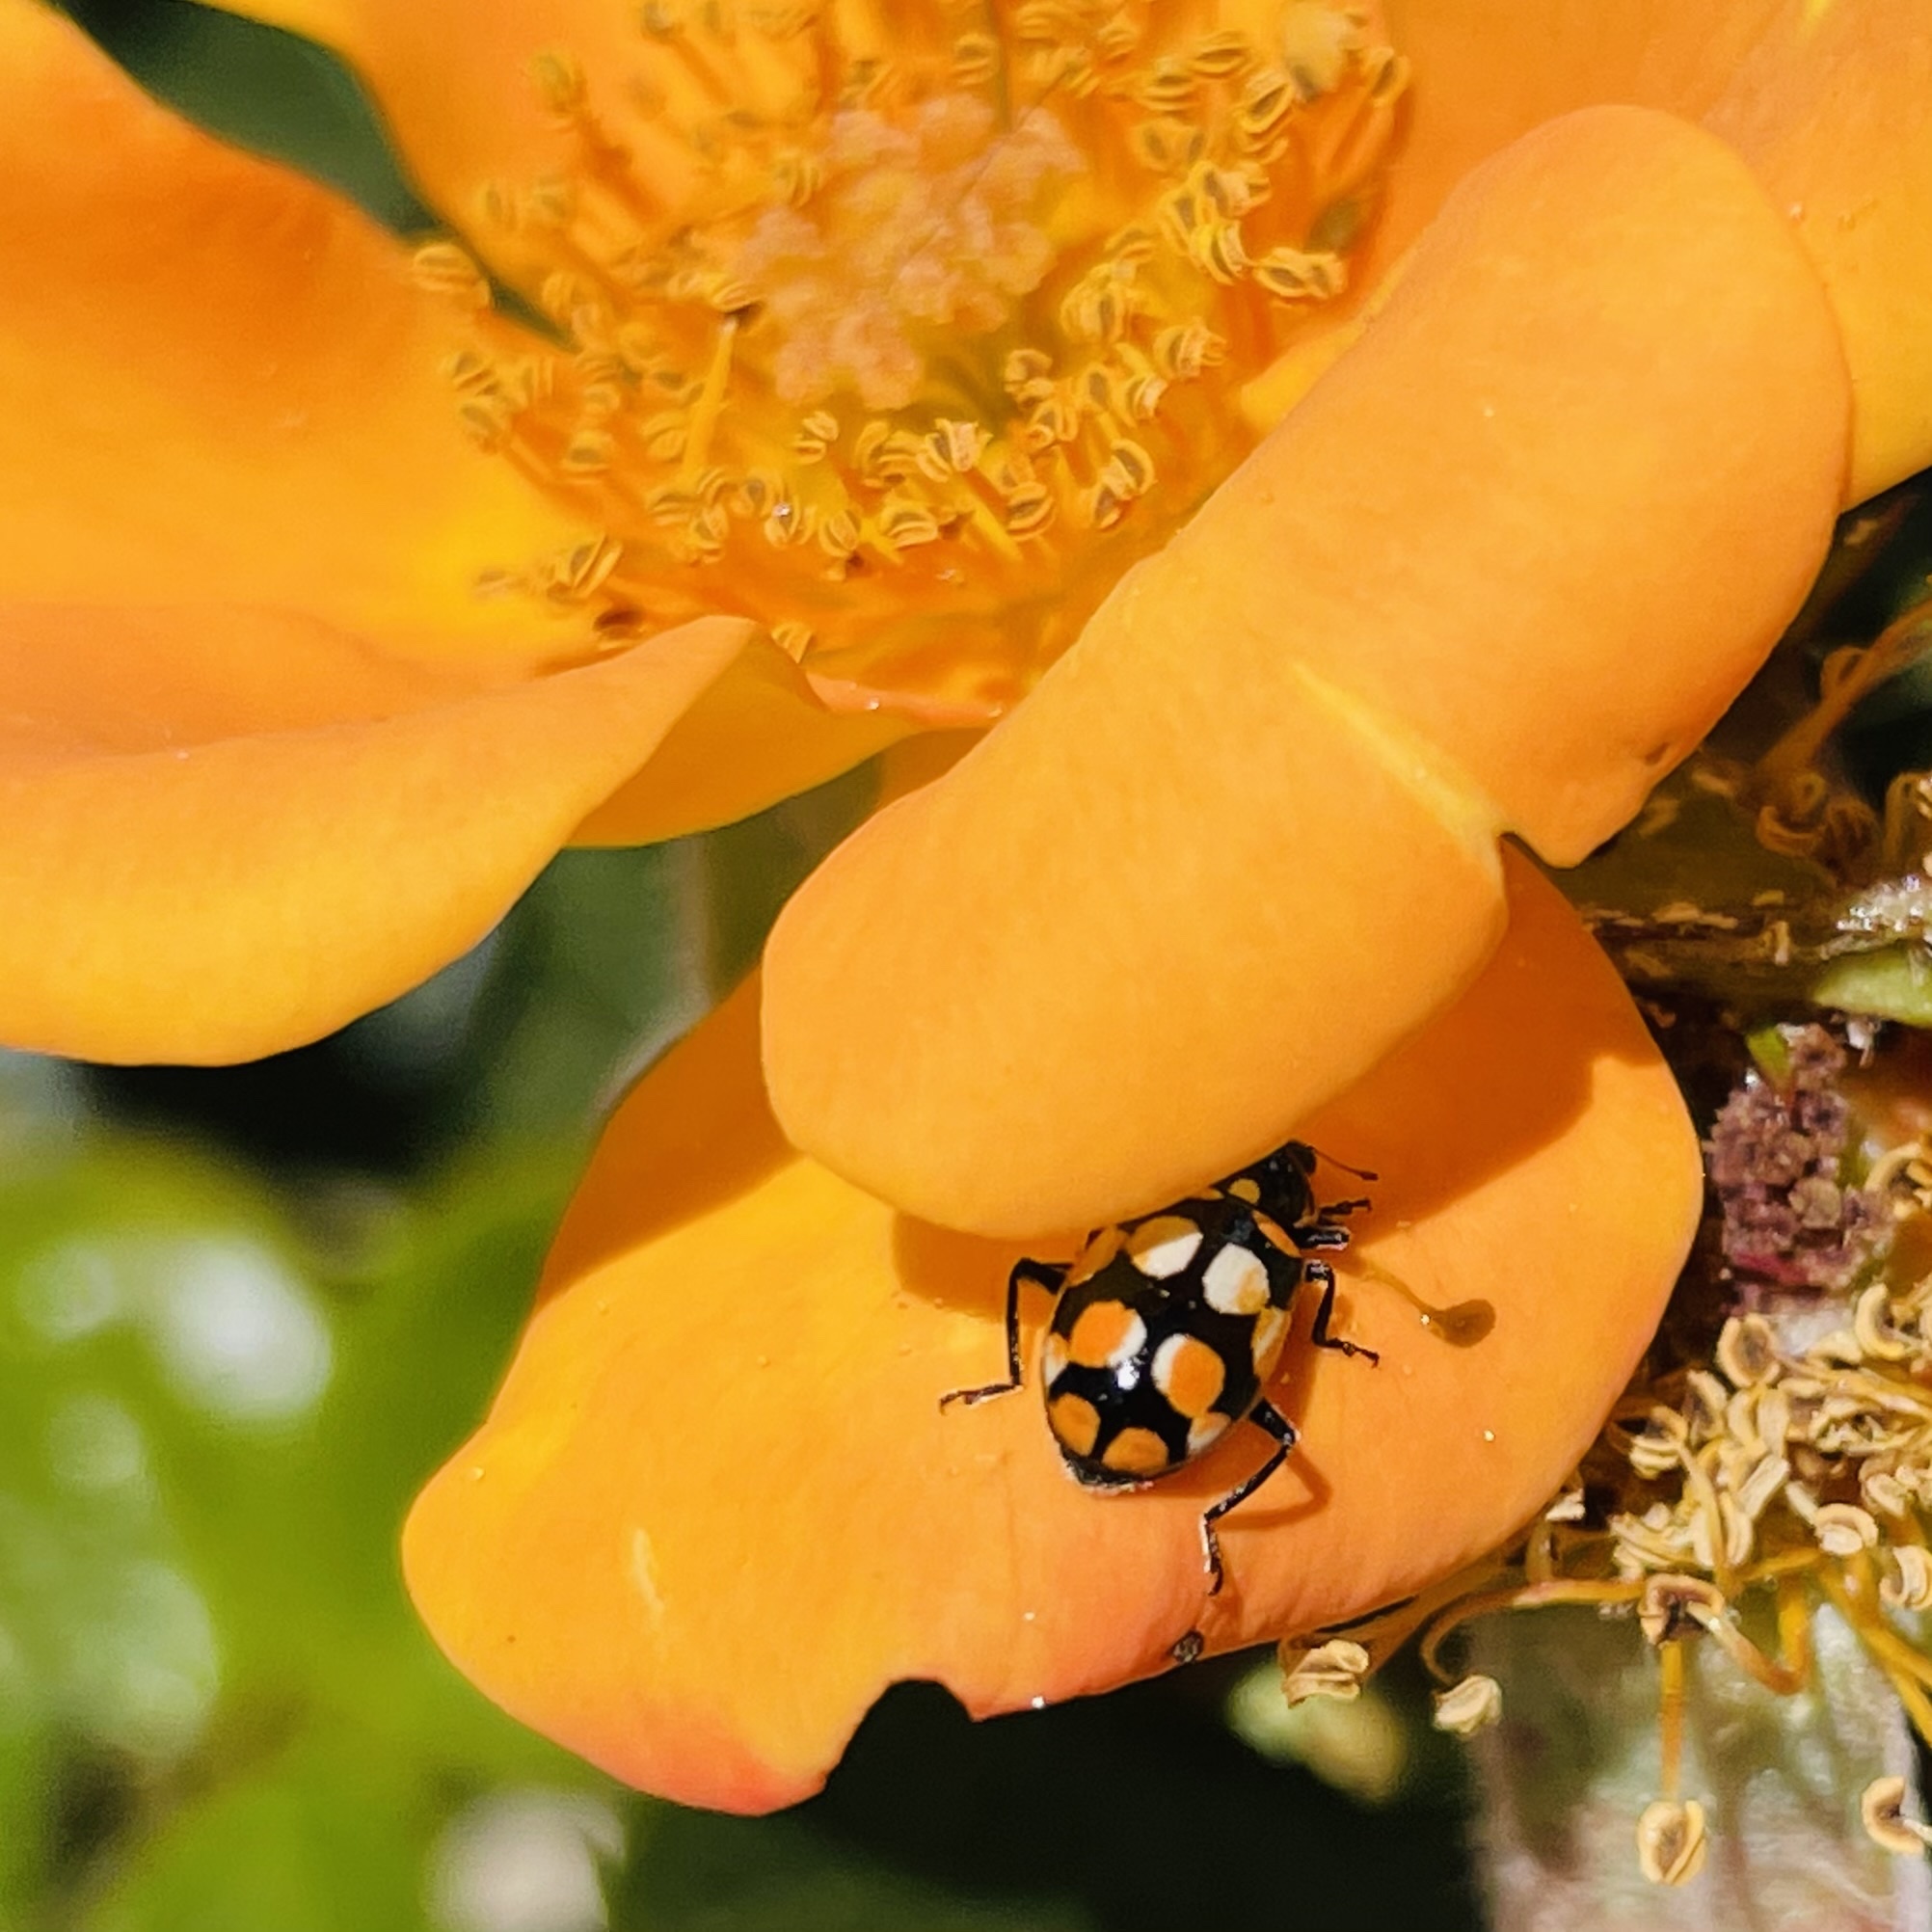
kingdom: Animalia
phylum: Arthropoda
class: Insecta
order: Coleoptera
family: Coccinellidae
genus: Eriopis
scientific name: Eriopis chilensis
